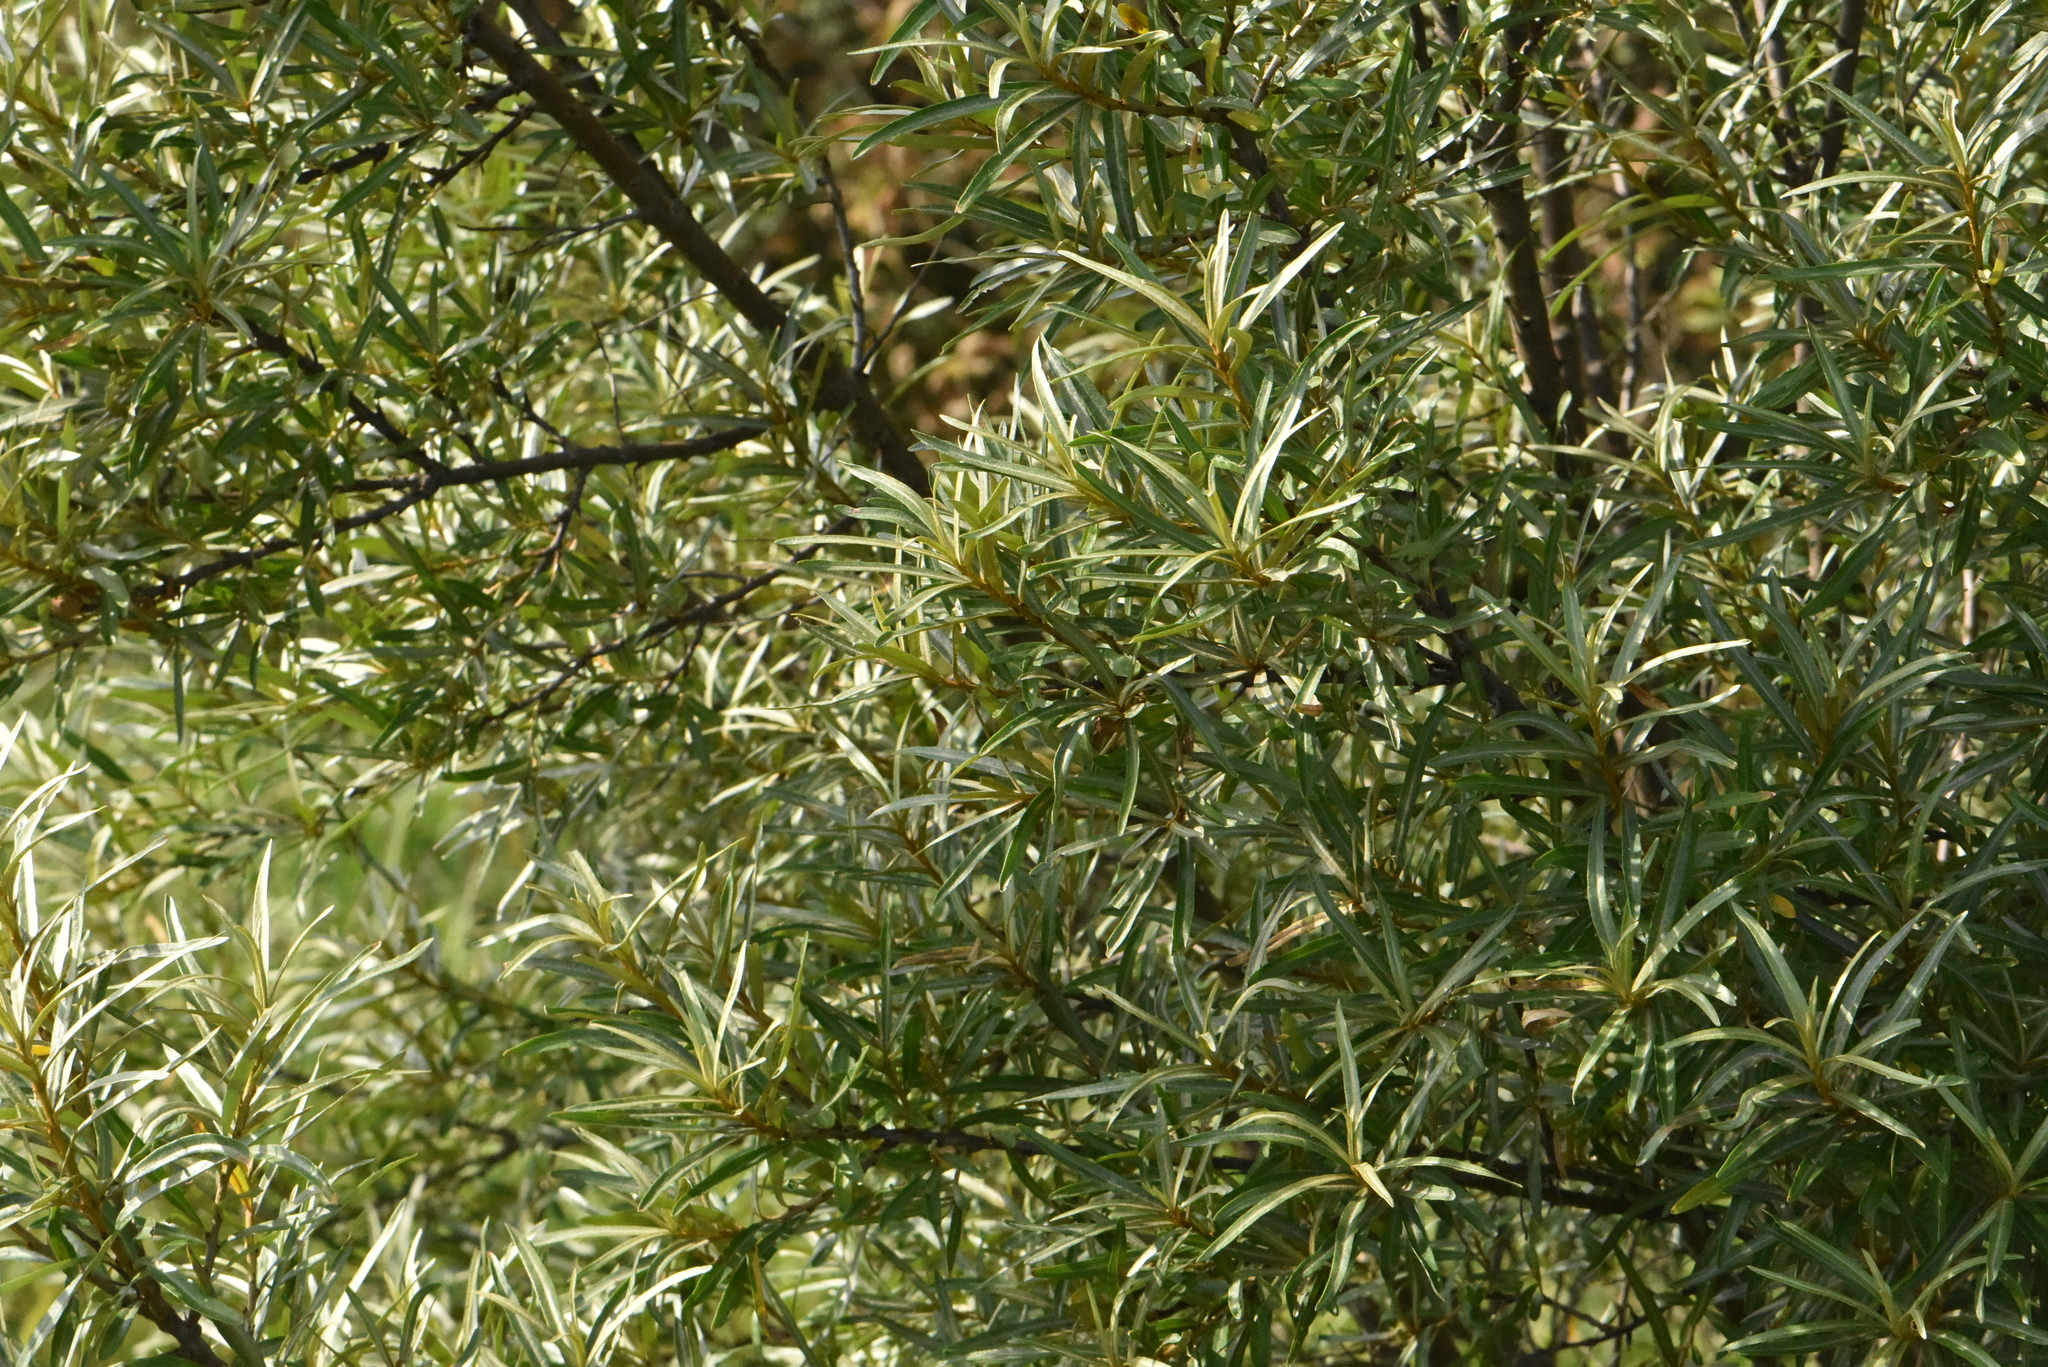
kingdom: Plantae
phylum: Tracheophyta
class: Magnoliopsida
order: Rosales
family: Elaeagnaceae
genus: Hippophae
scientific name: Hippophae rhamnoides
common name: Sea-buckthorn
